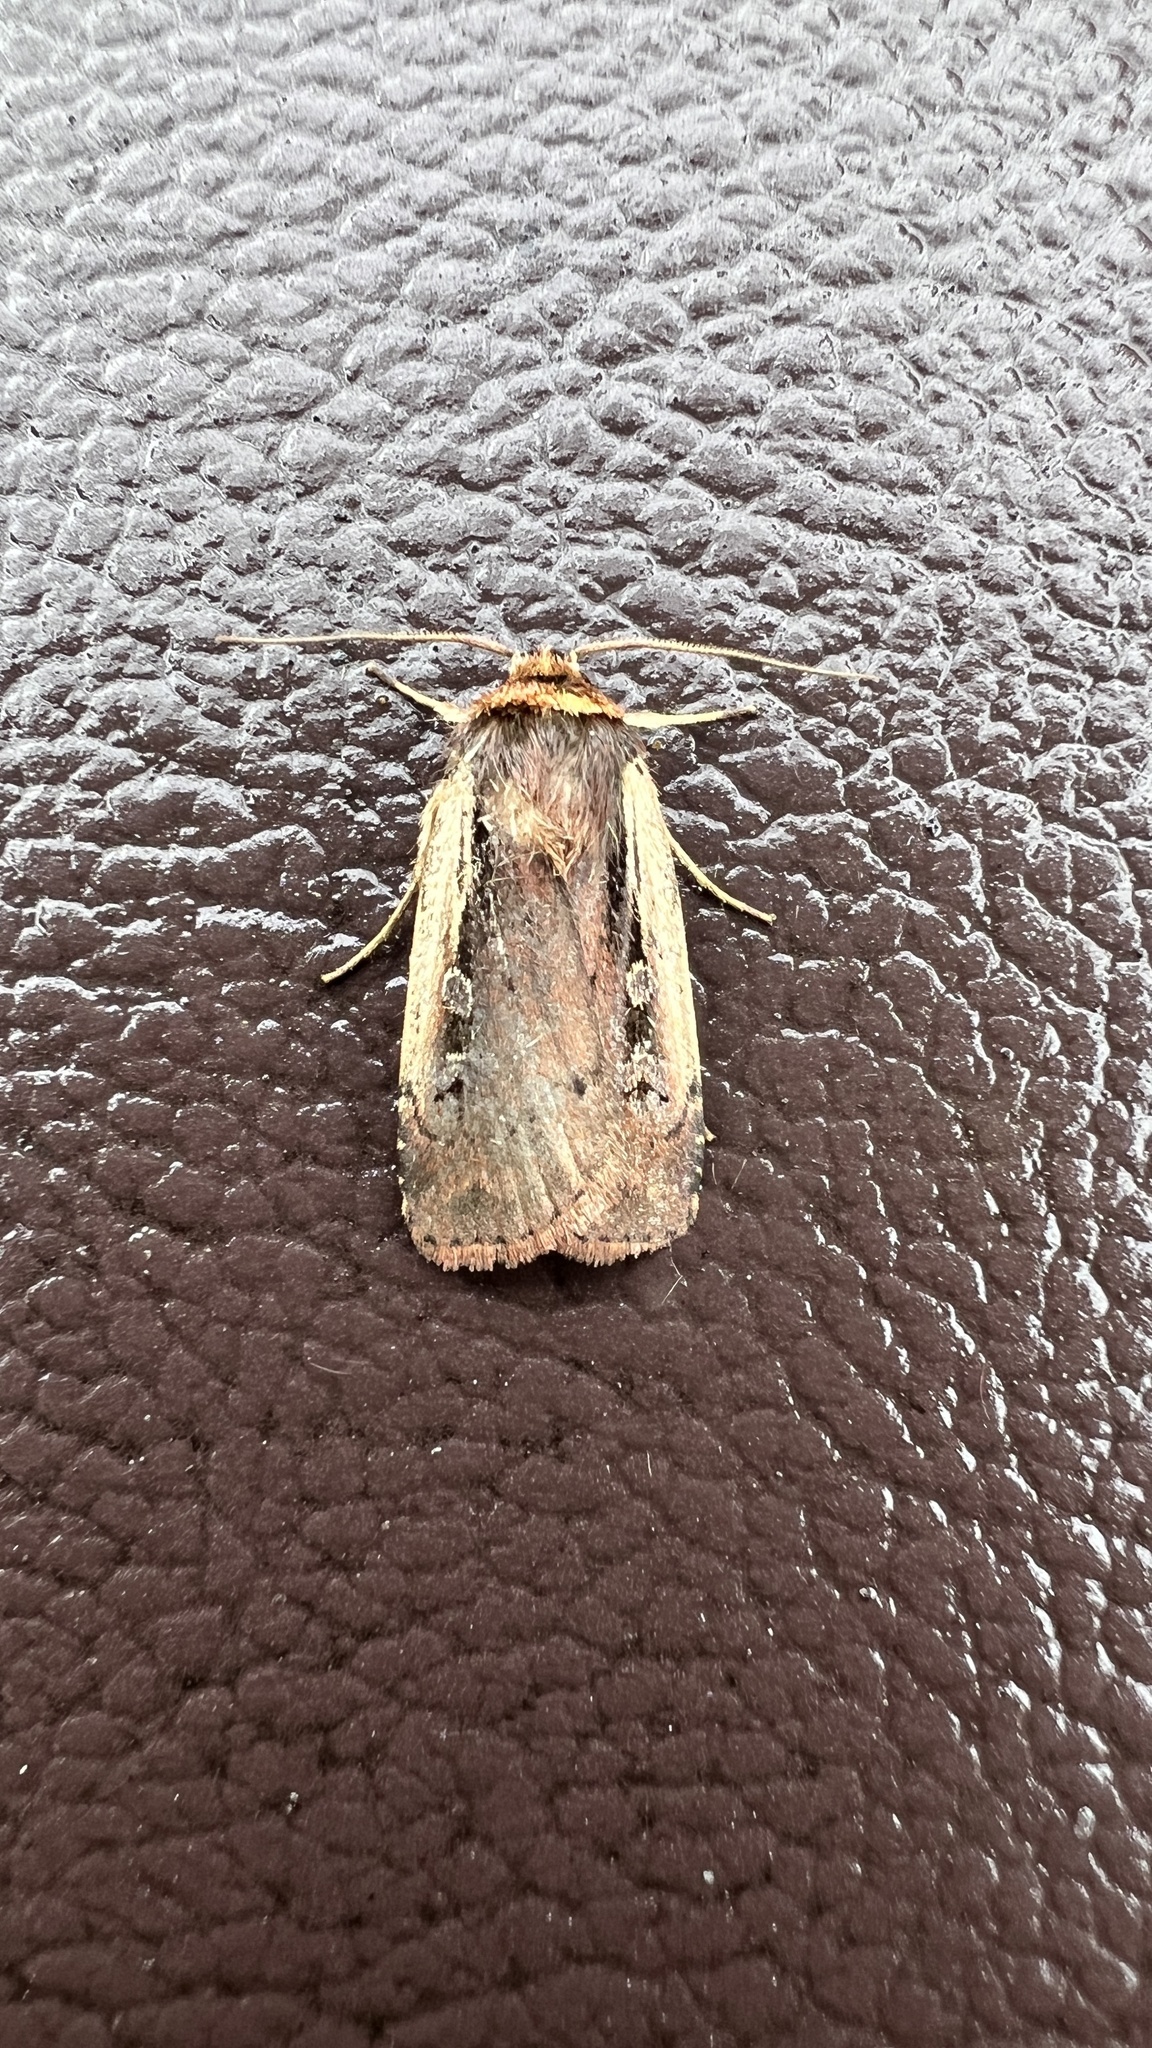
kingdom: Animalia
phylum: Arthropoda
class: Insecta
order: Lepidoptera
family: Noctuidae
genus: Ochropleura
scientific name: Ochropleura implecta
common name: Flame-shouldered dart
